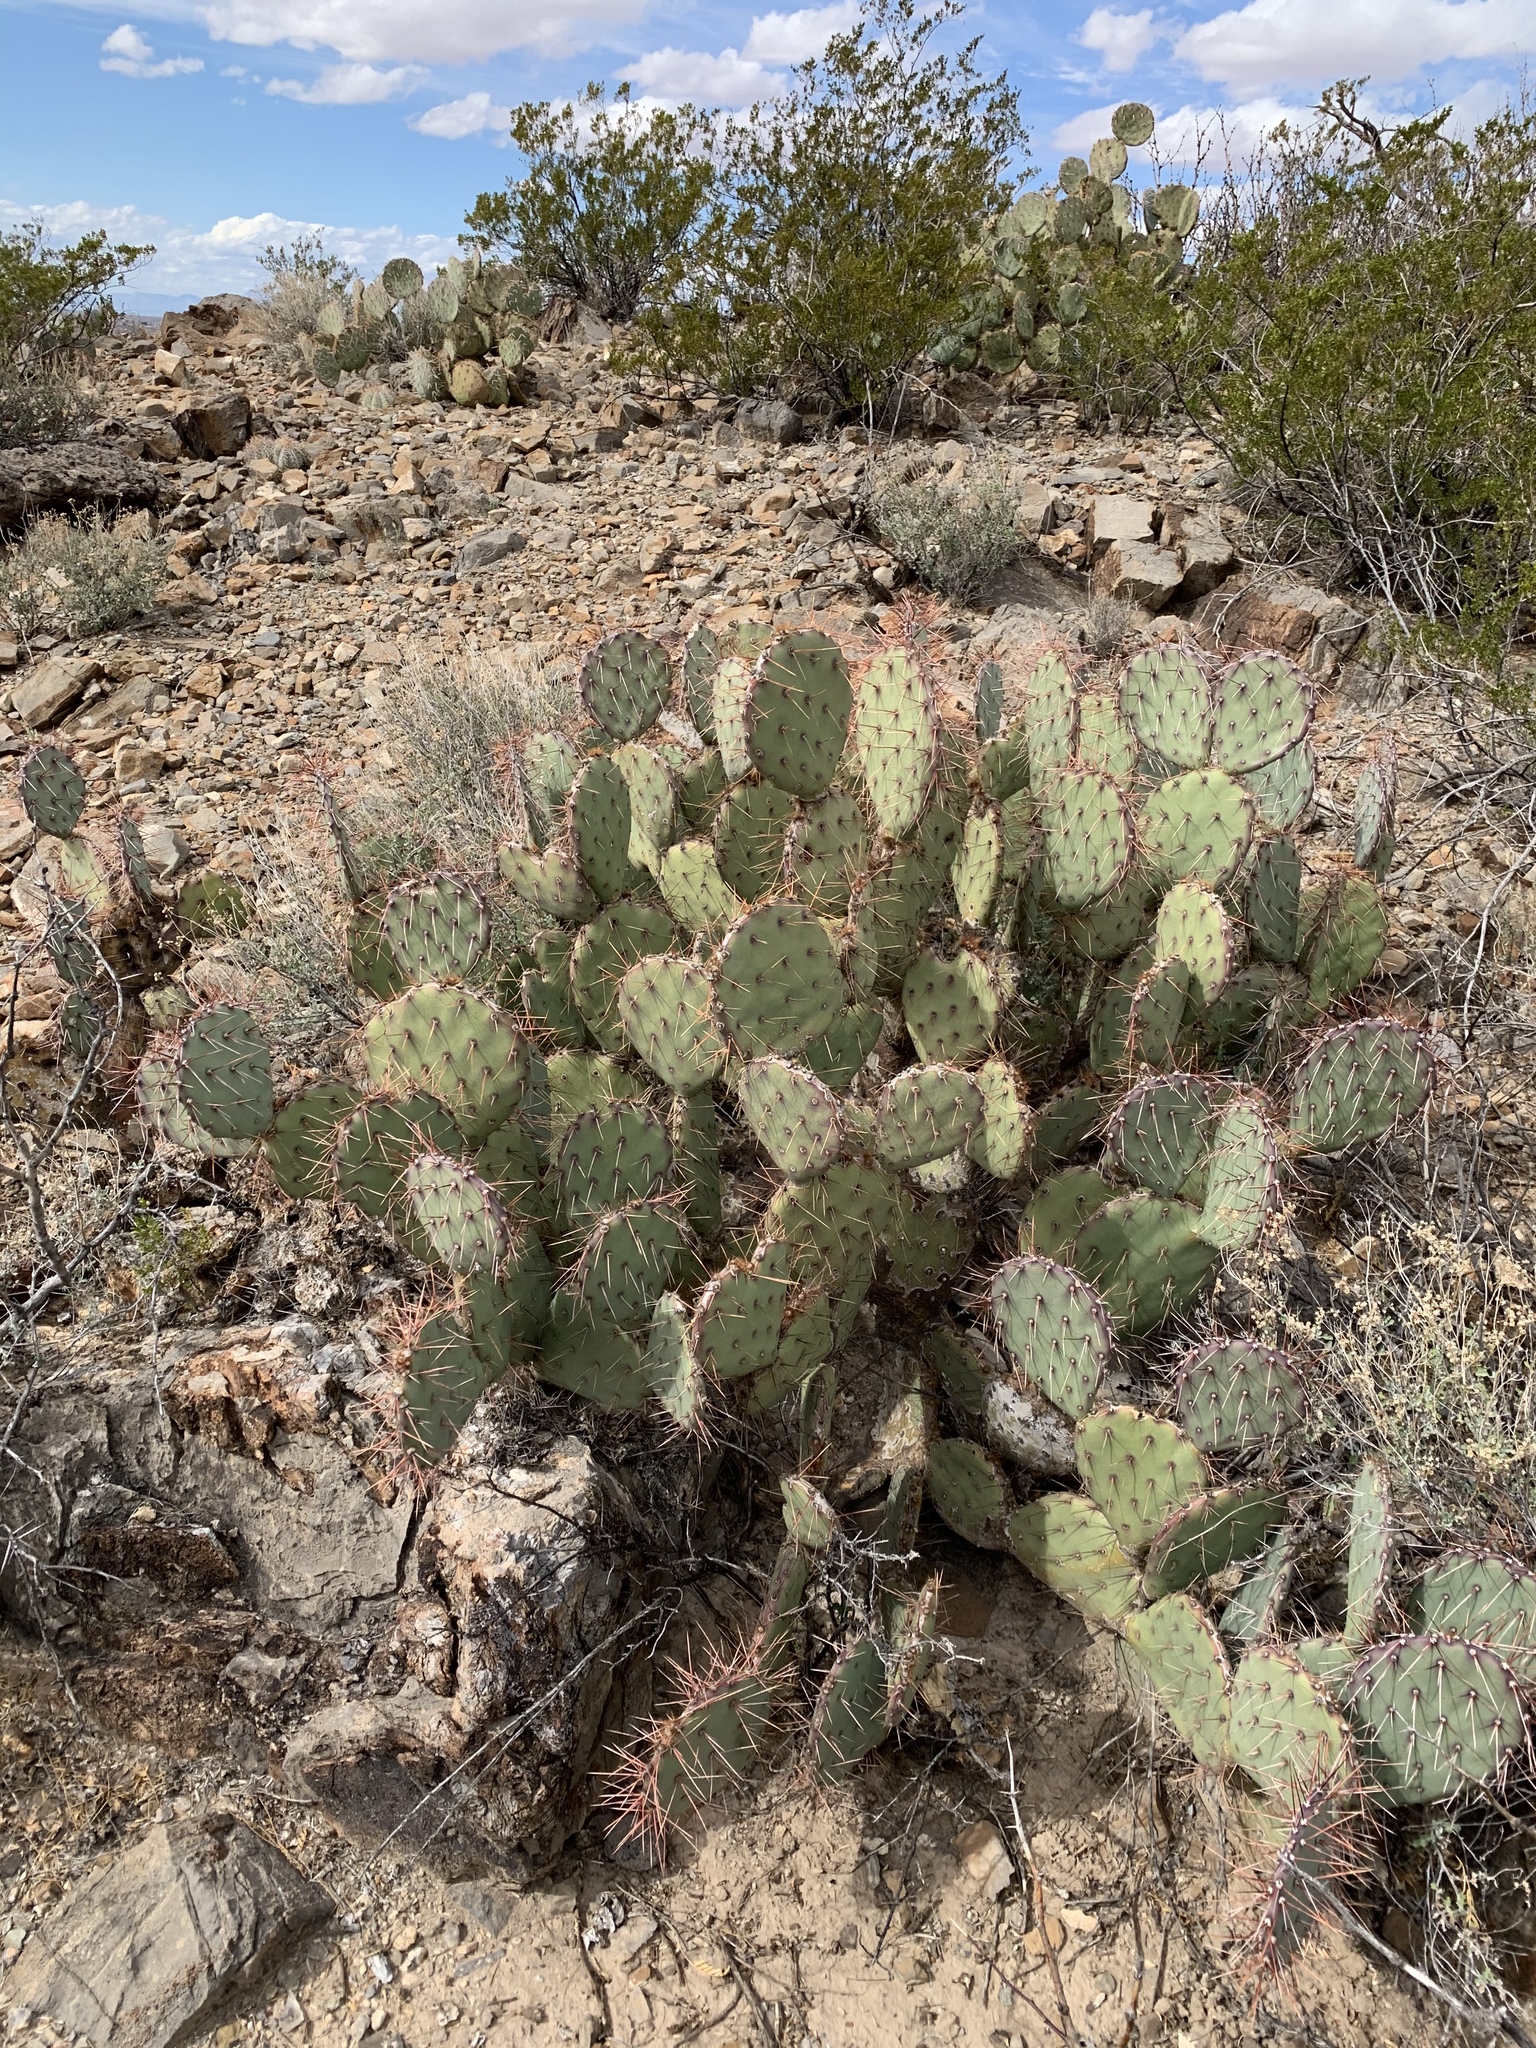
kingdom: Plantae
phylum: Tracheophyta
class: Magnoliopsida
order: Caryophyllales
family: Cactaceae
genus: Opuntia
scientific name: Opuntia engelmannii
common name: Cactus-apple
